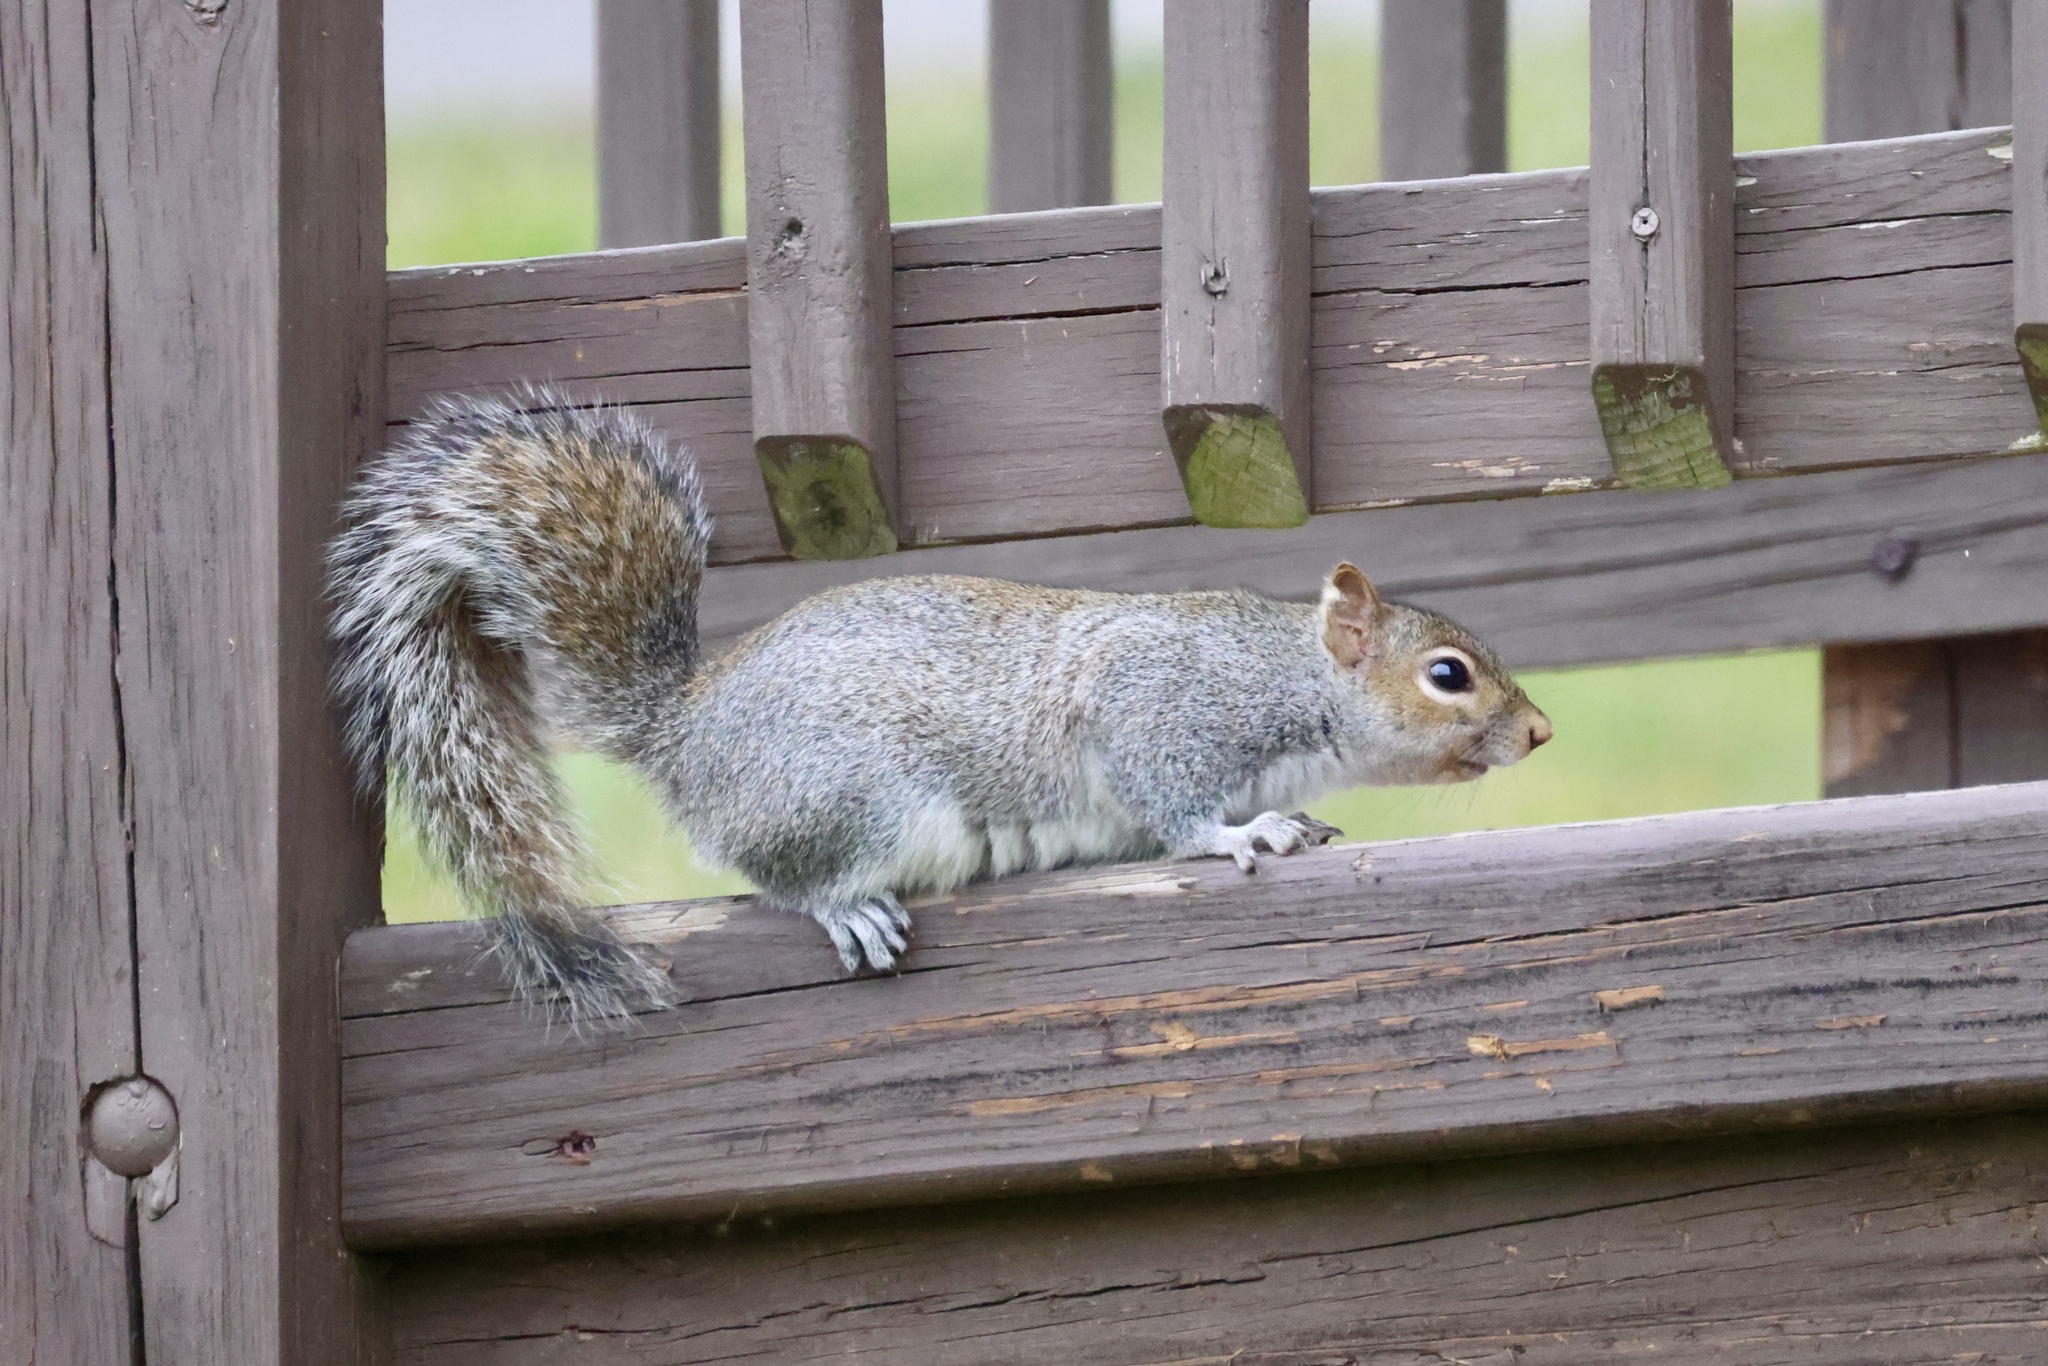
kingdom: Animalia
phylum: Chordata
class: Mammalia
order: Rodentia
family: Sciuridae
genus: Sciurus
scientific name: Sciurus carolinensis
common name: Eastern gray squirrel
